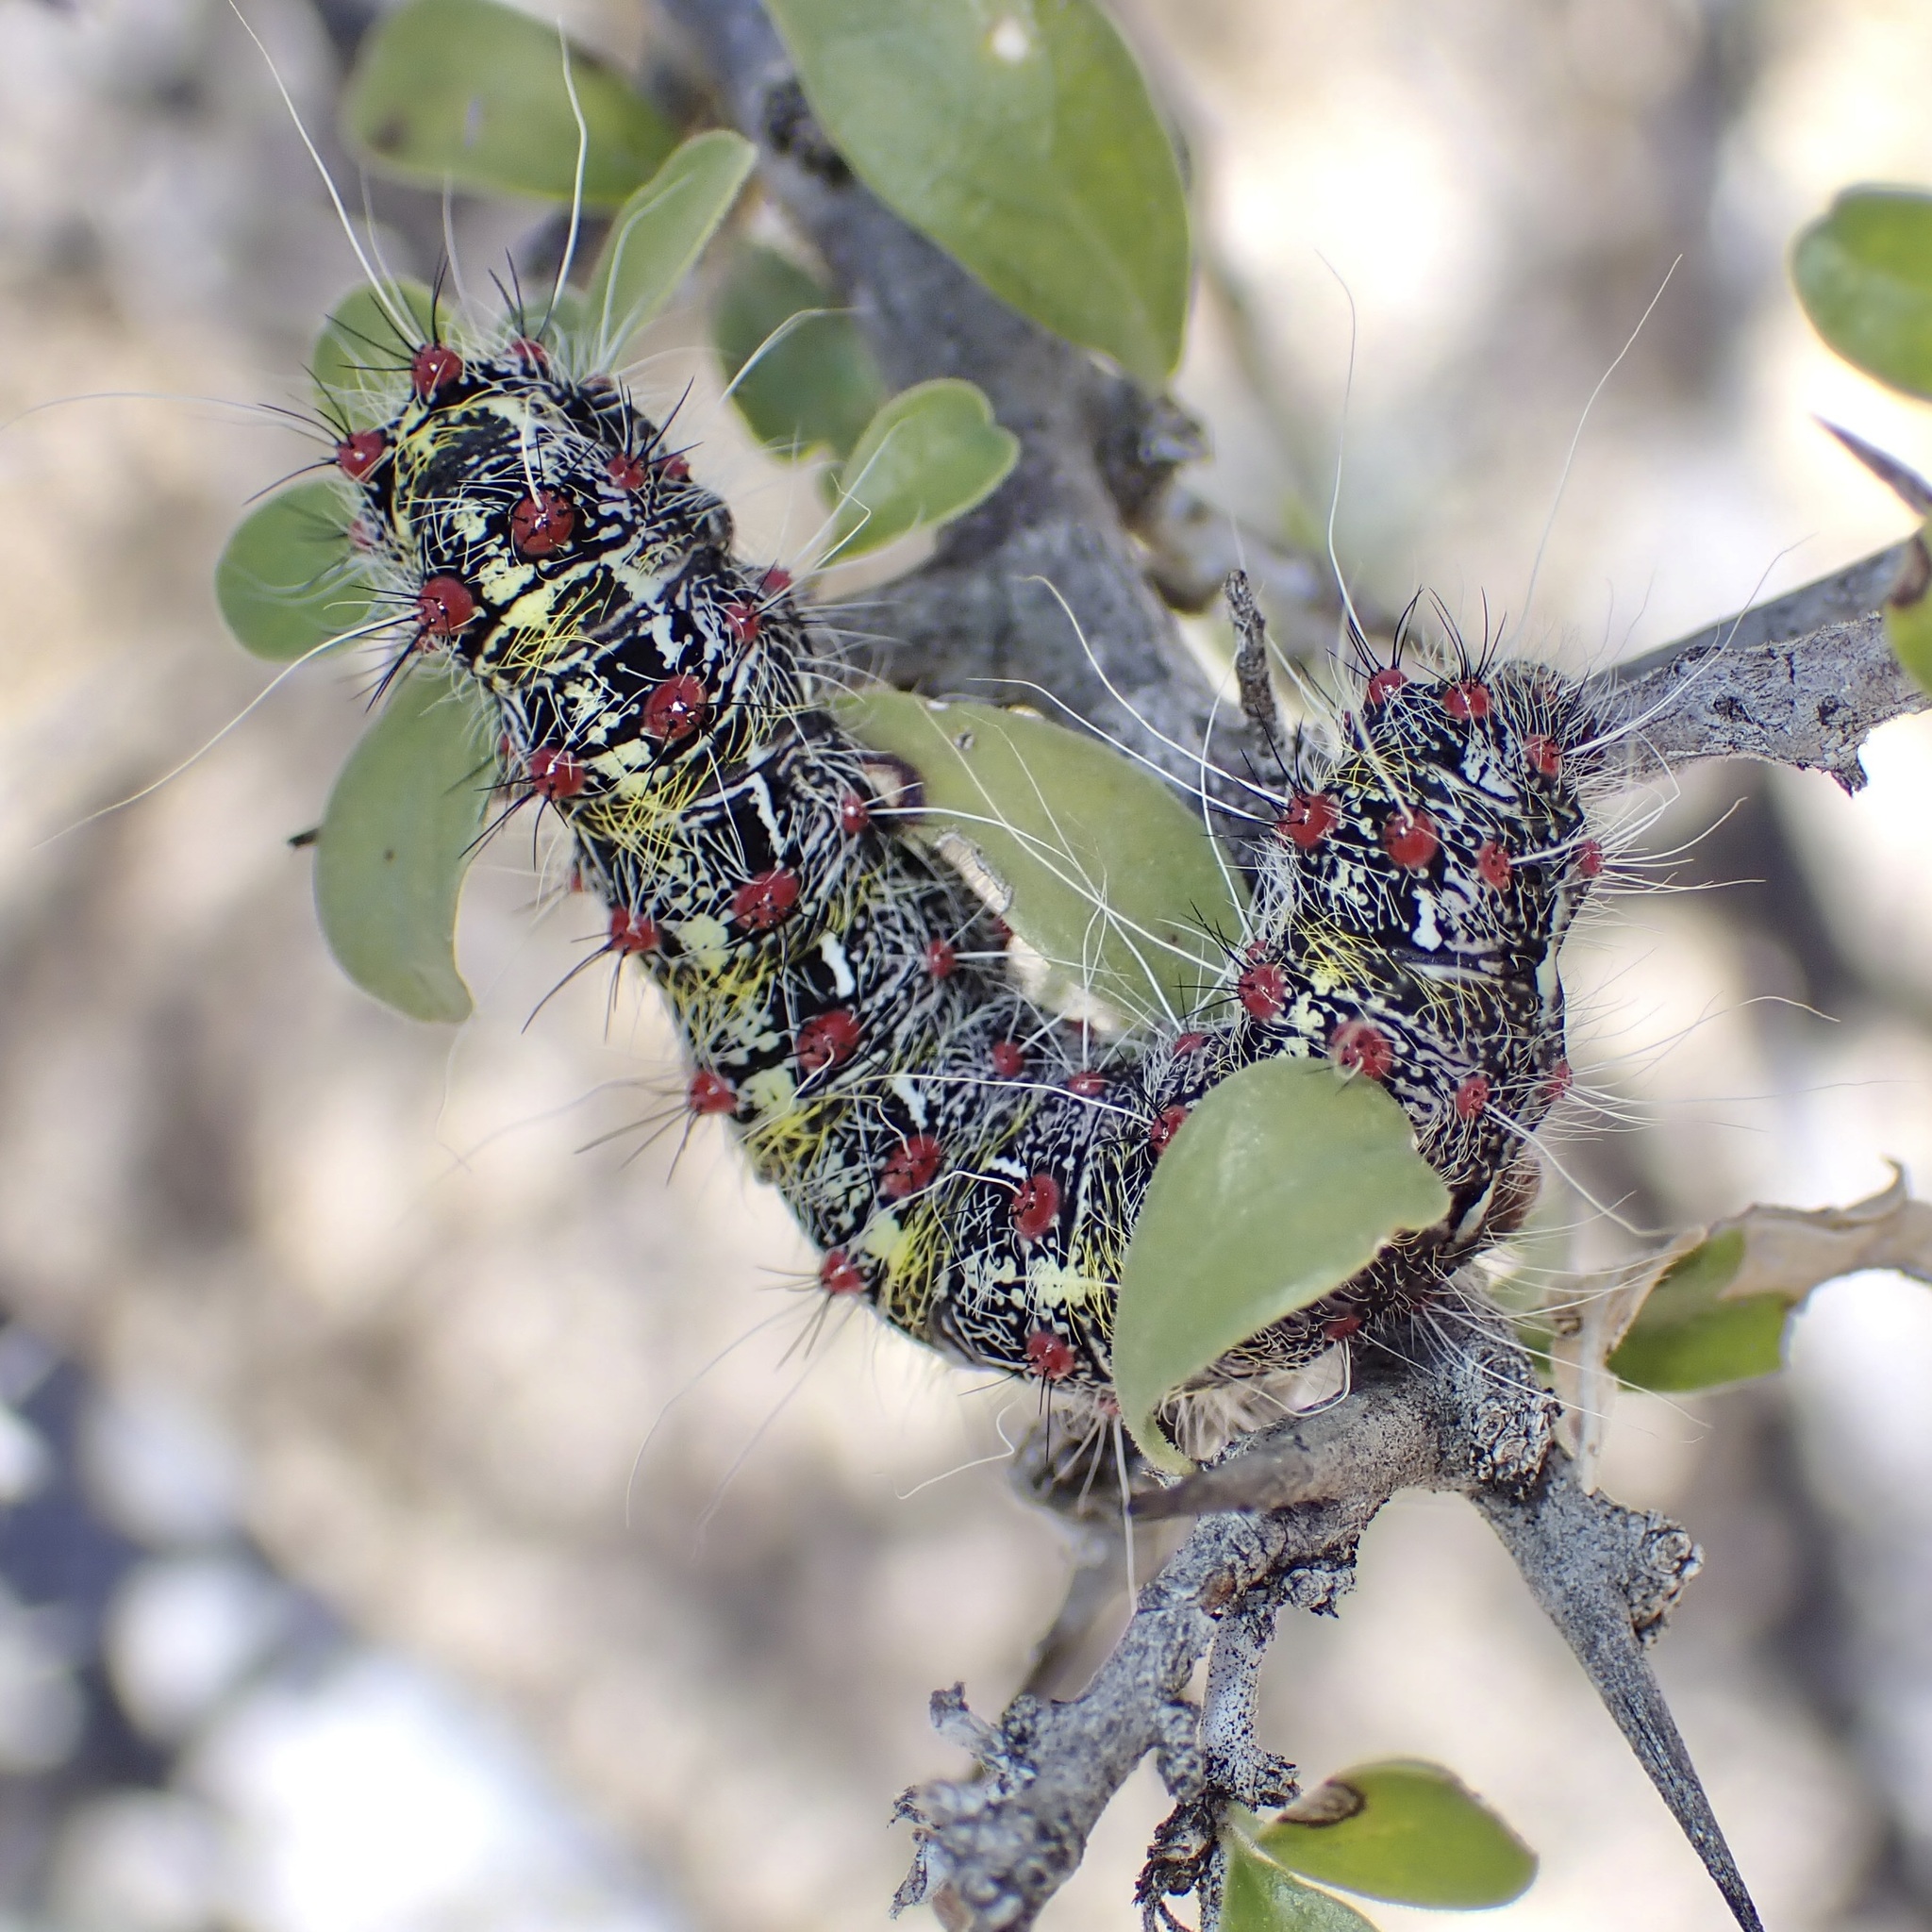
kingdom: Animalia
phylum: Arthropoda
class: Insecta
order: Lepidoptera
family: Saturniidae
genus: Saturnia
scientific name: Saturnia anona
